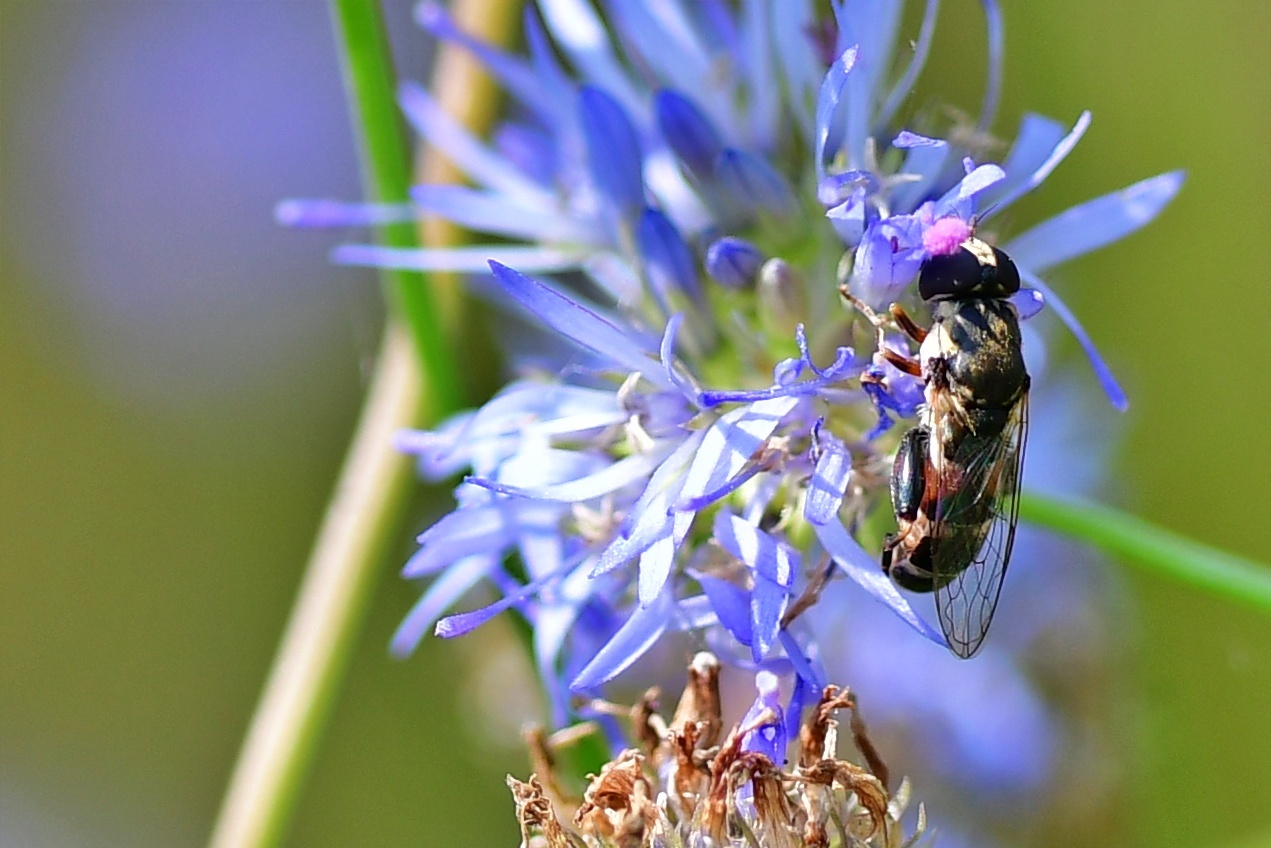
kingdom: Animalia
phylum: Arthropoda
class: Insecta
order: Diptera
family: Syrphidae
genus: Syritta
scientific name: Syritta pipiens
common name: Hover fly
